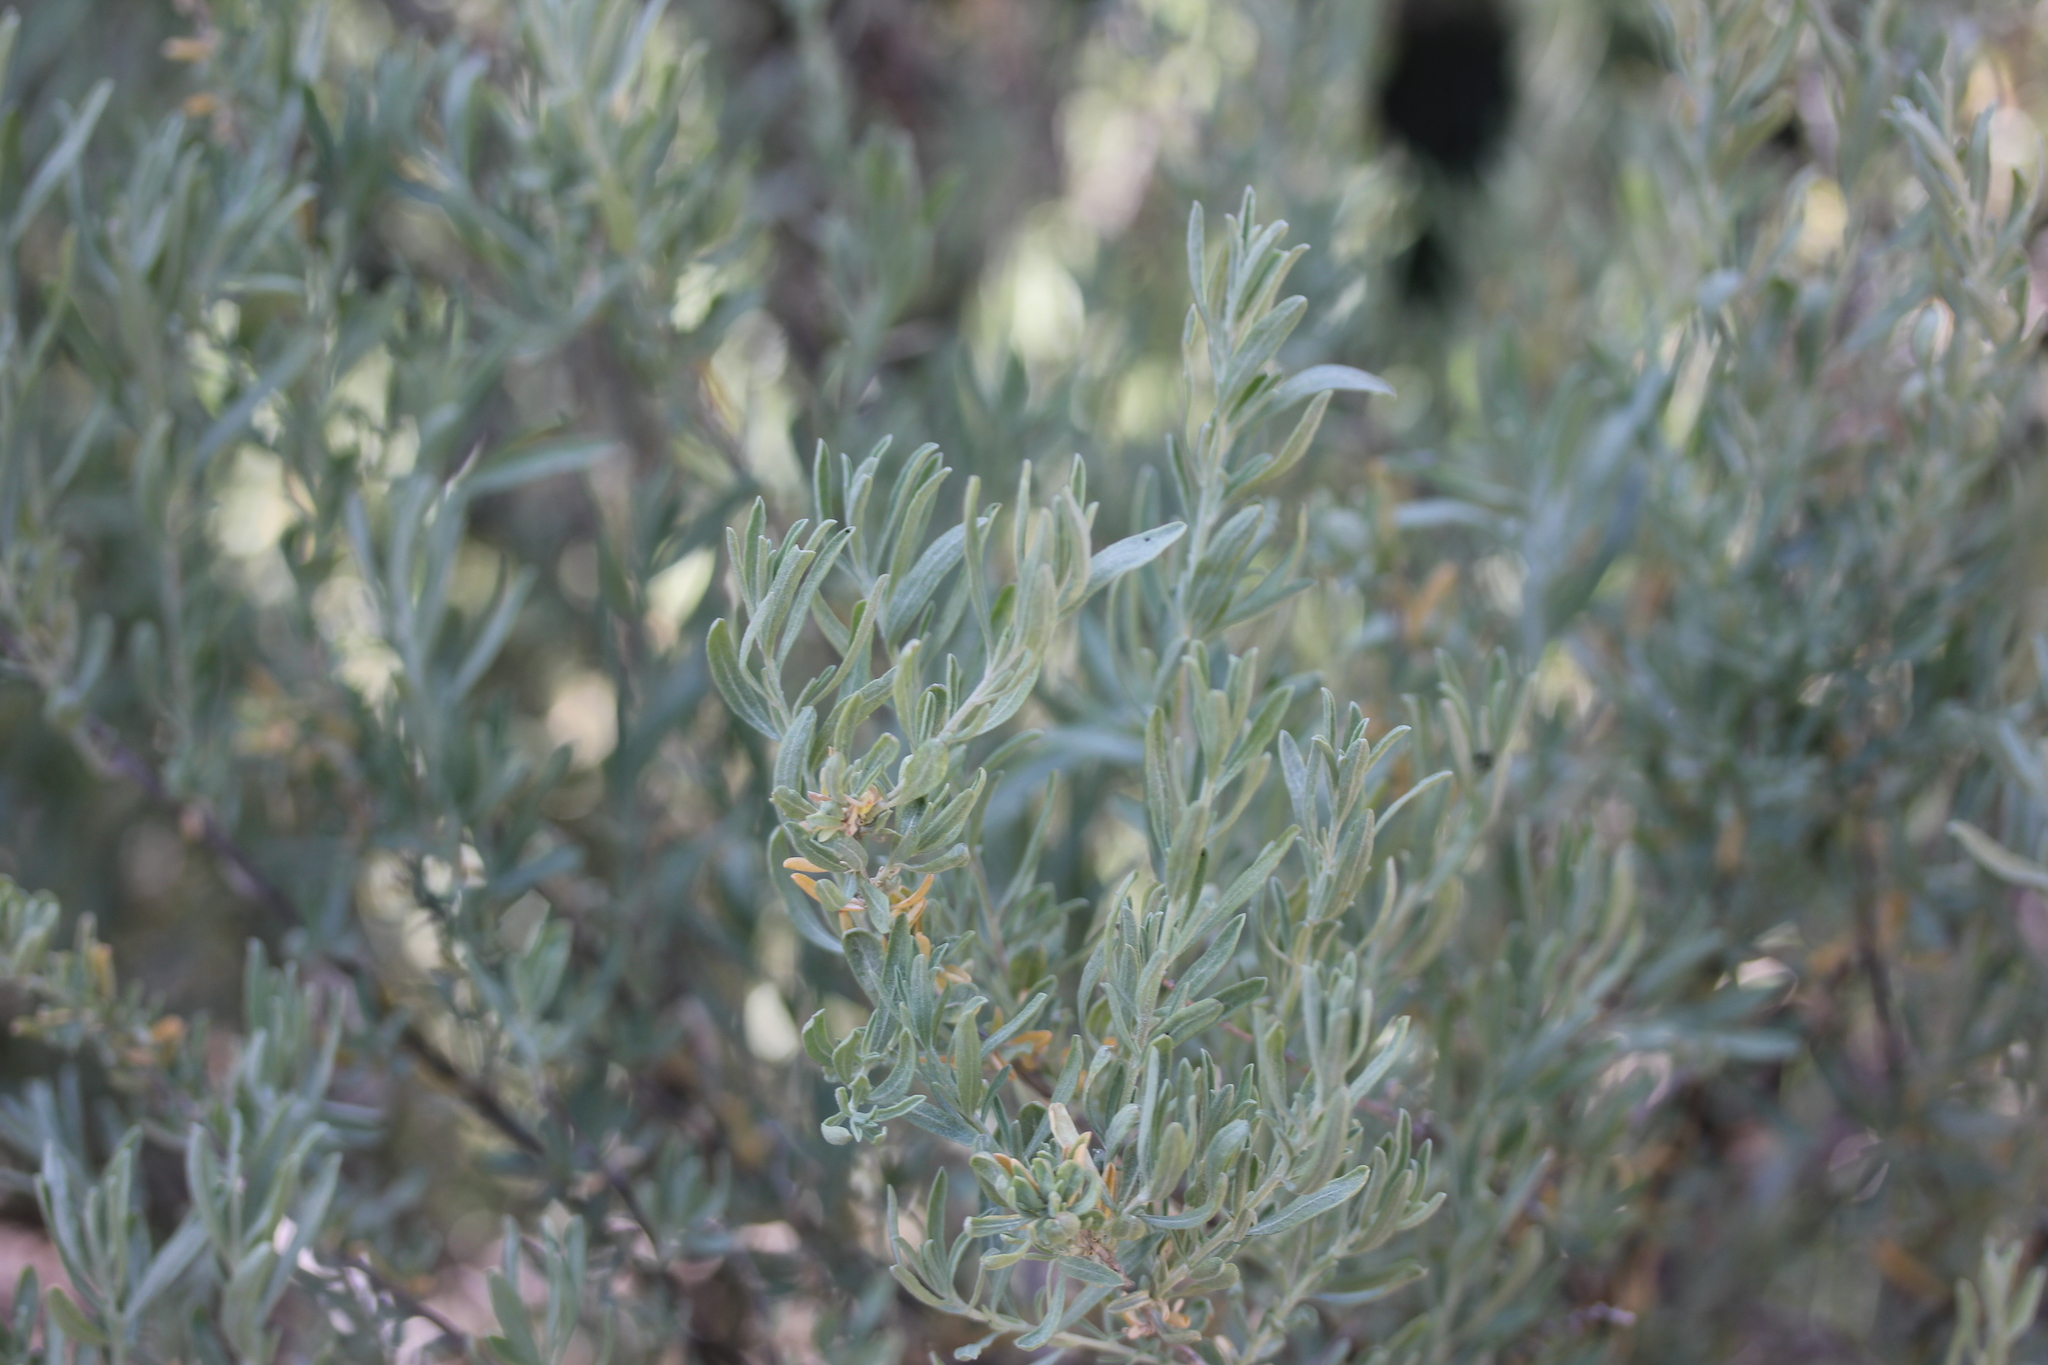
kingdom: Plantae
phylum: Tracheophyta
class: Magnoliopsida
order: Asterales
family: Asteraceae
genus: Artemisia
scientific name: Artemisia cana
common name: Silver sagebrush
